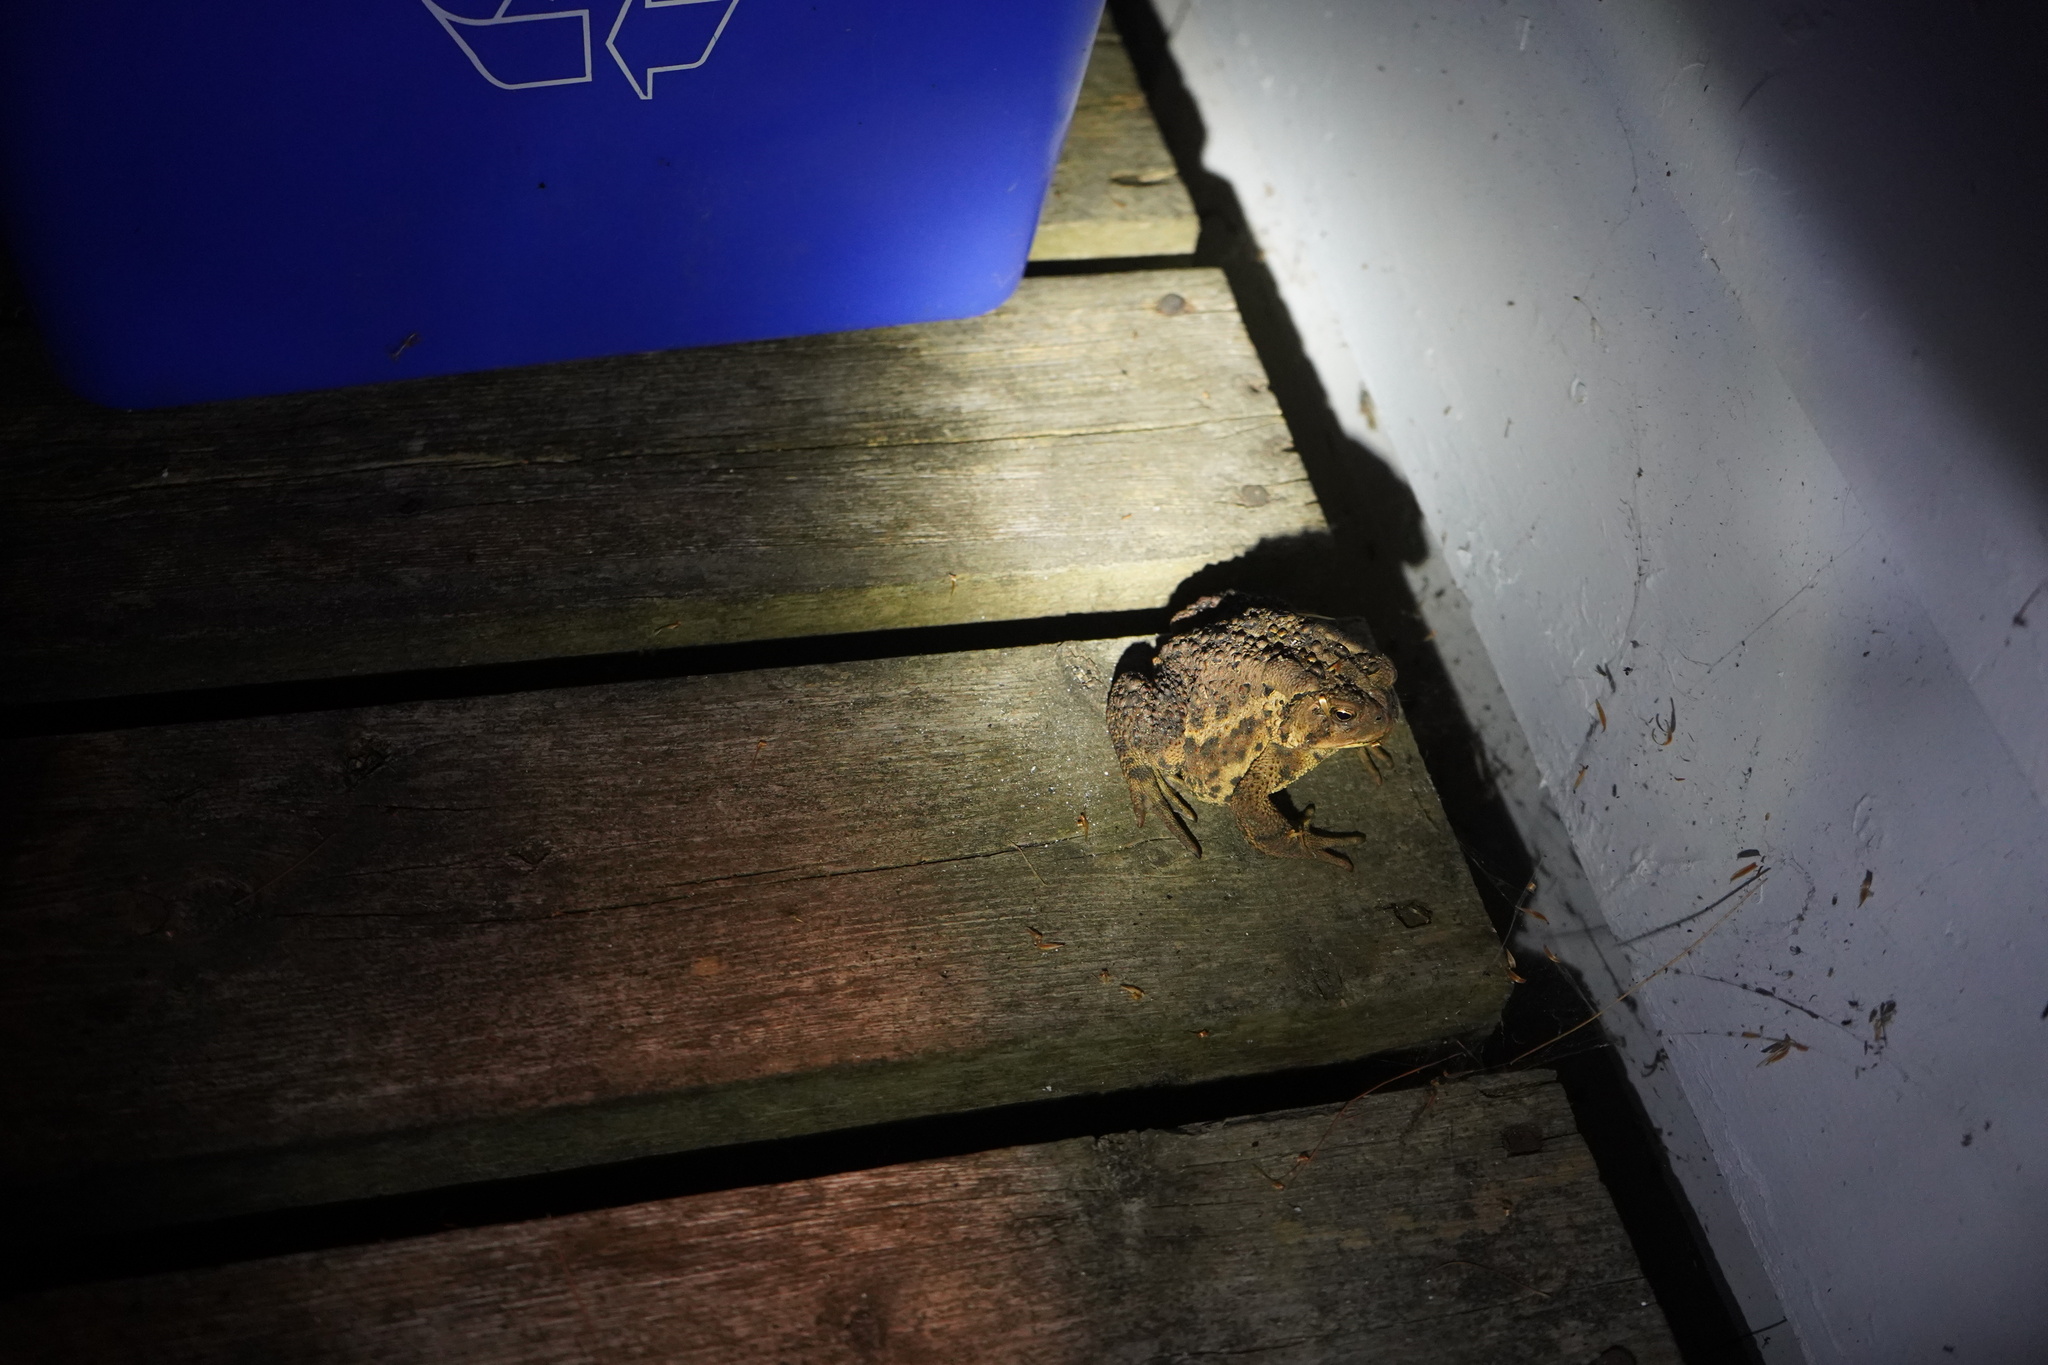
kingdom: Animalia
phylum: Chordata
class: Amphibia
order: Anura
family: Bufonidae
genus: Anaxyrus
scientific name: Anaxyrus americanus
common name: American toad
